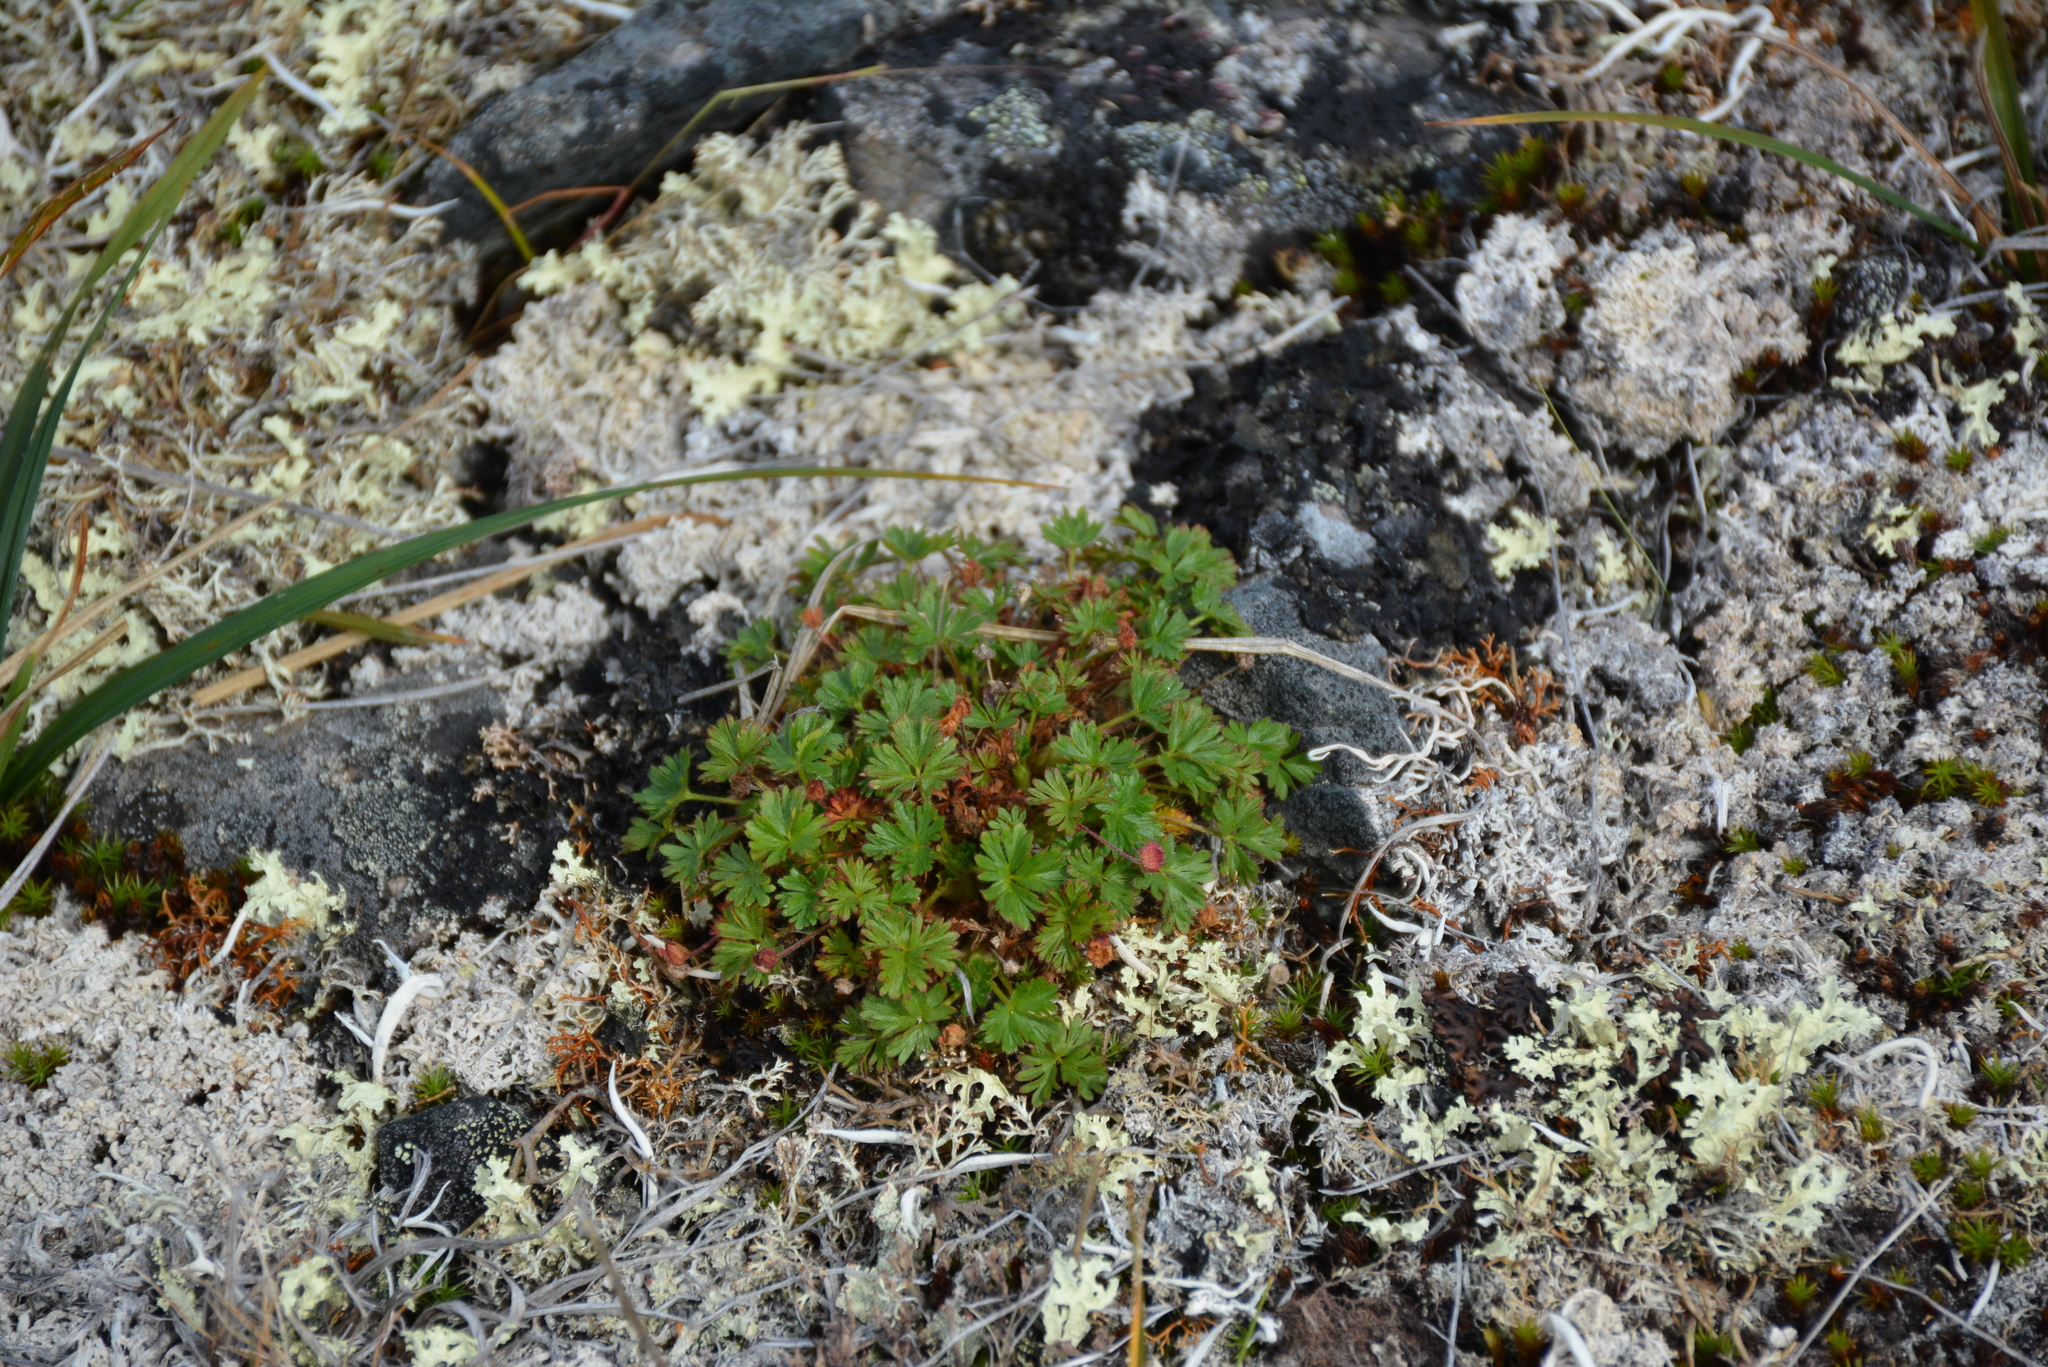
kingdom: Plantae
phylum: Tracheophyta
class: Magnoliopsida
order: Rosales
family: Rosaceae
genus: Potentilla
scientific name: Potentilla elegans
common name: Elegant cinquefoil
